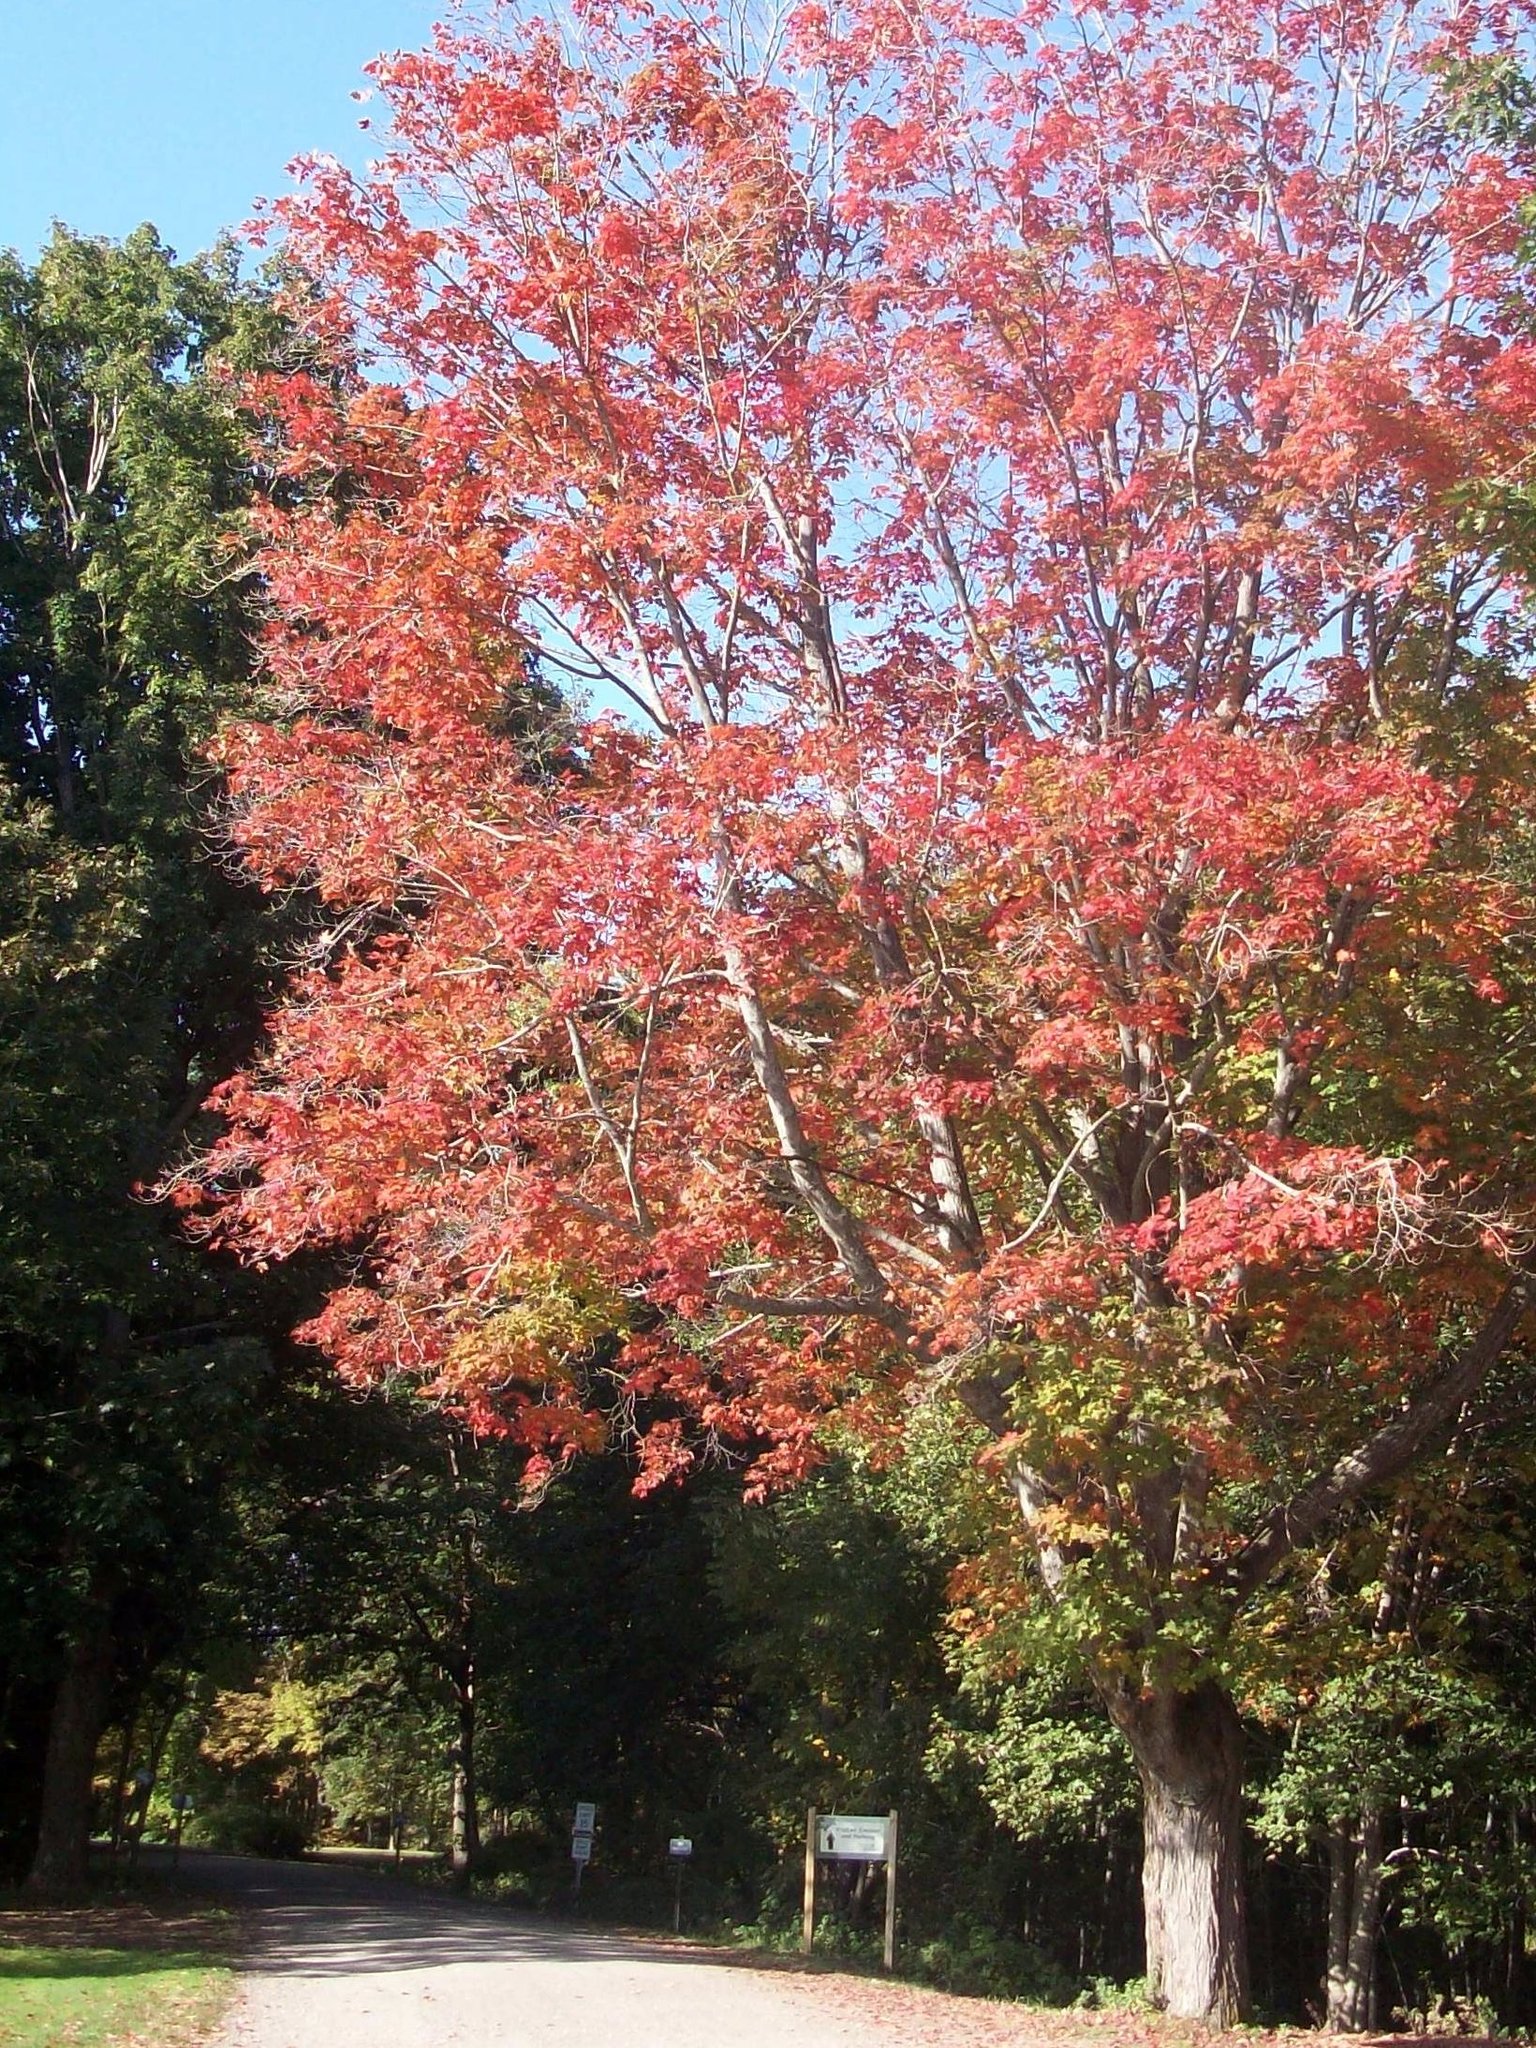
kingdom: Plantae
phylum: Tracheophyta
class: Magnoliopsida
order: Sapindales
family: Sapindaceae
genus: Acer
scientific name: Acer saccharum
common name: Sugar maple
